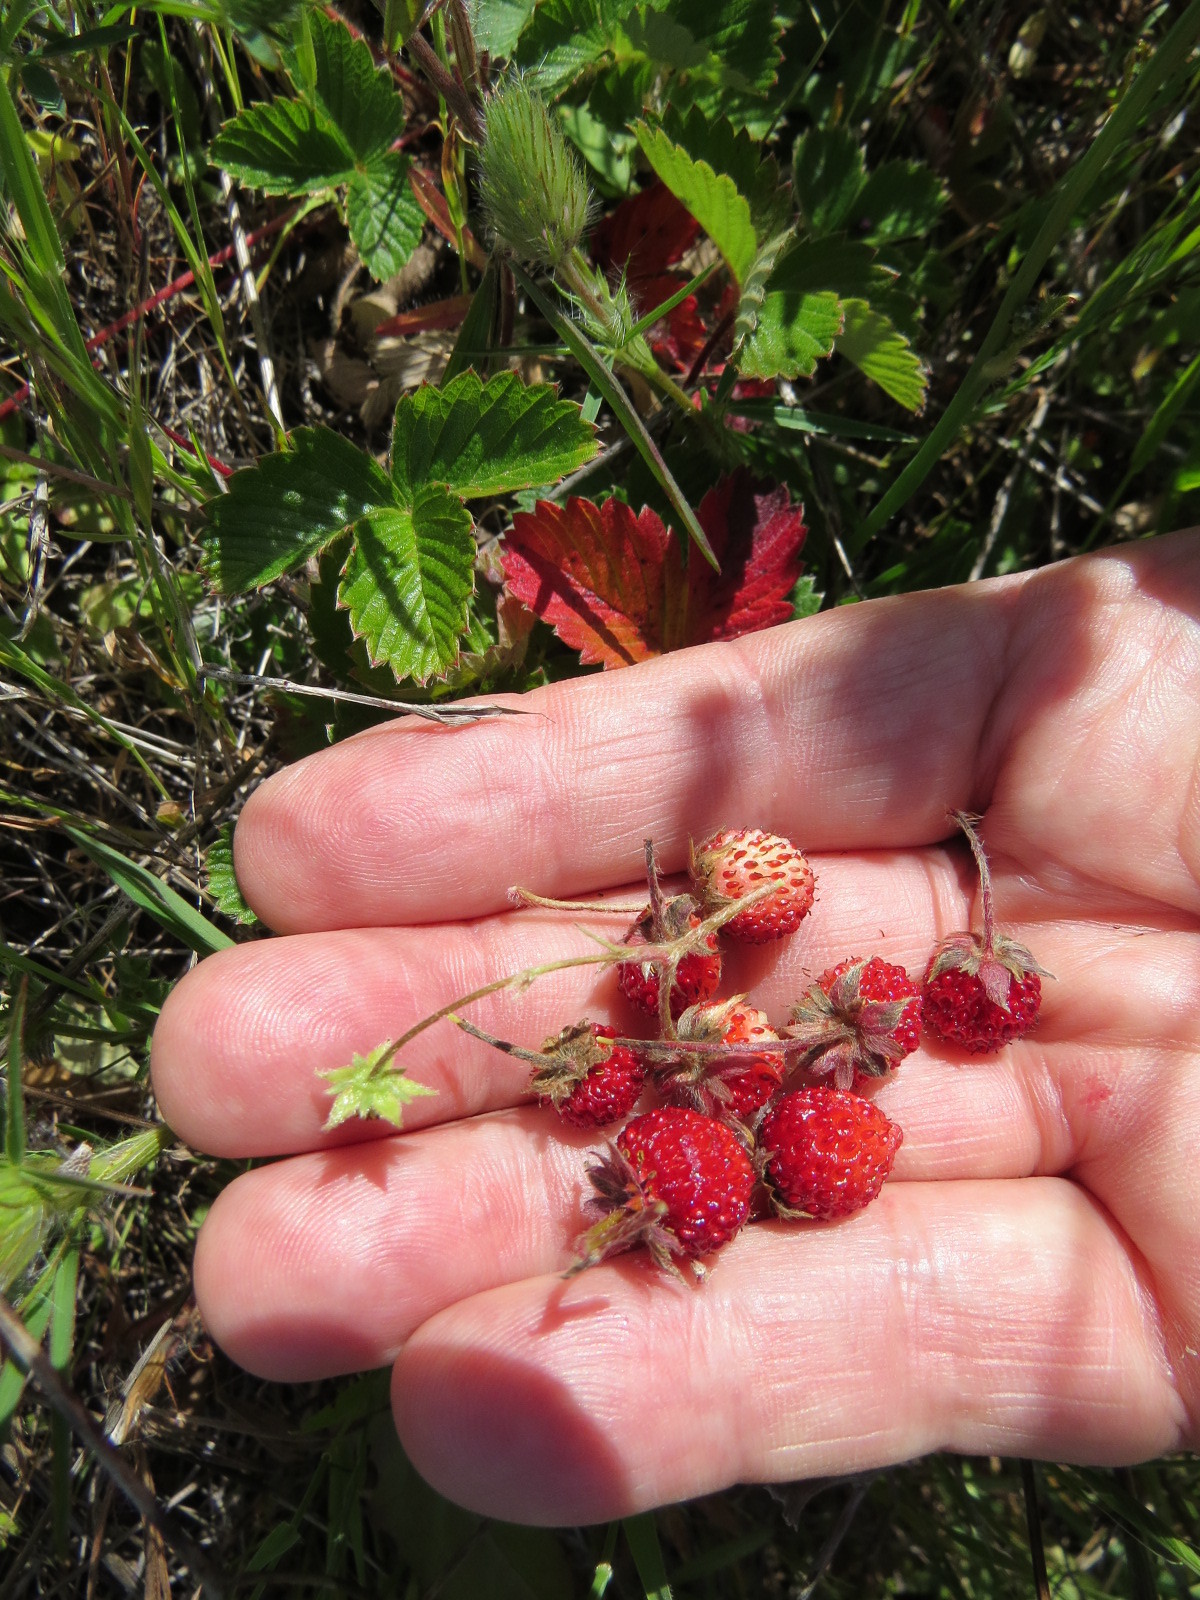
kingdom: Plantae
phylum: Tracheophyta
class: Magnoliopsida
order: Rosales
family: Rosaceae
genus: Fragaria
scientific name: Fragaria vesca
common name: Wild strawberry
